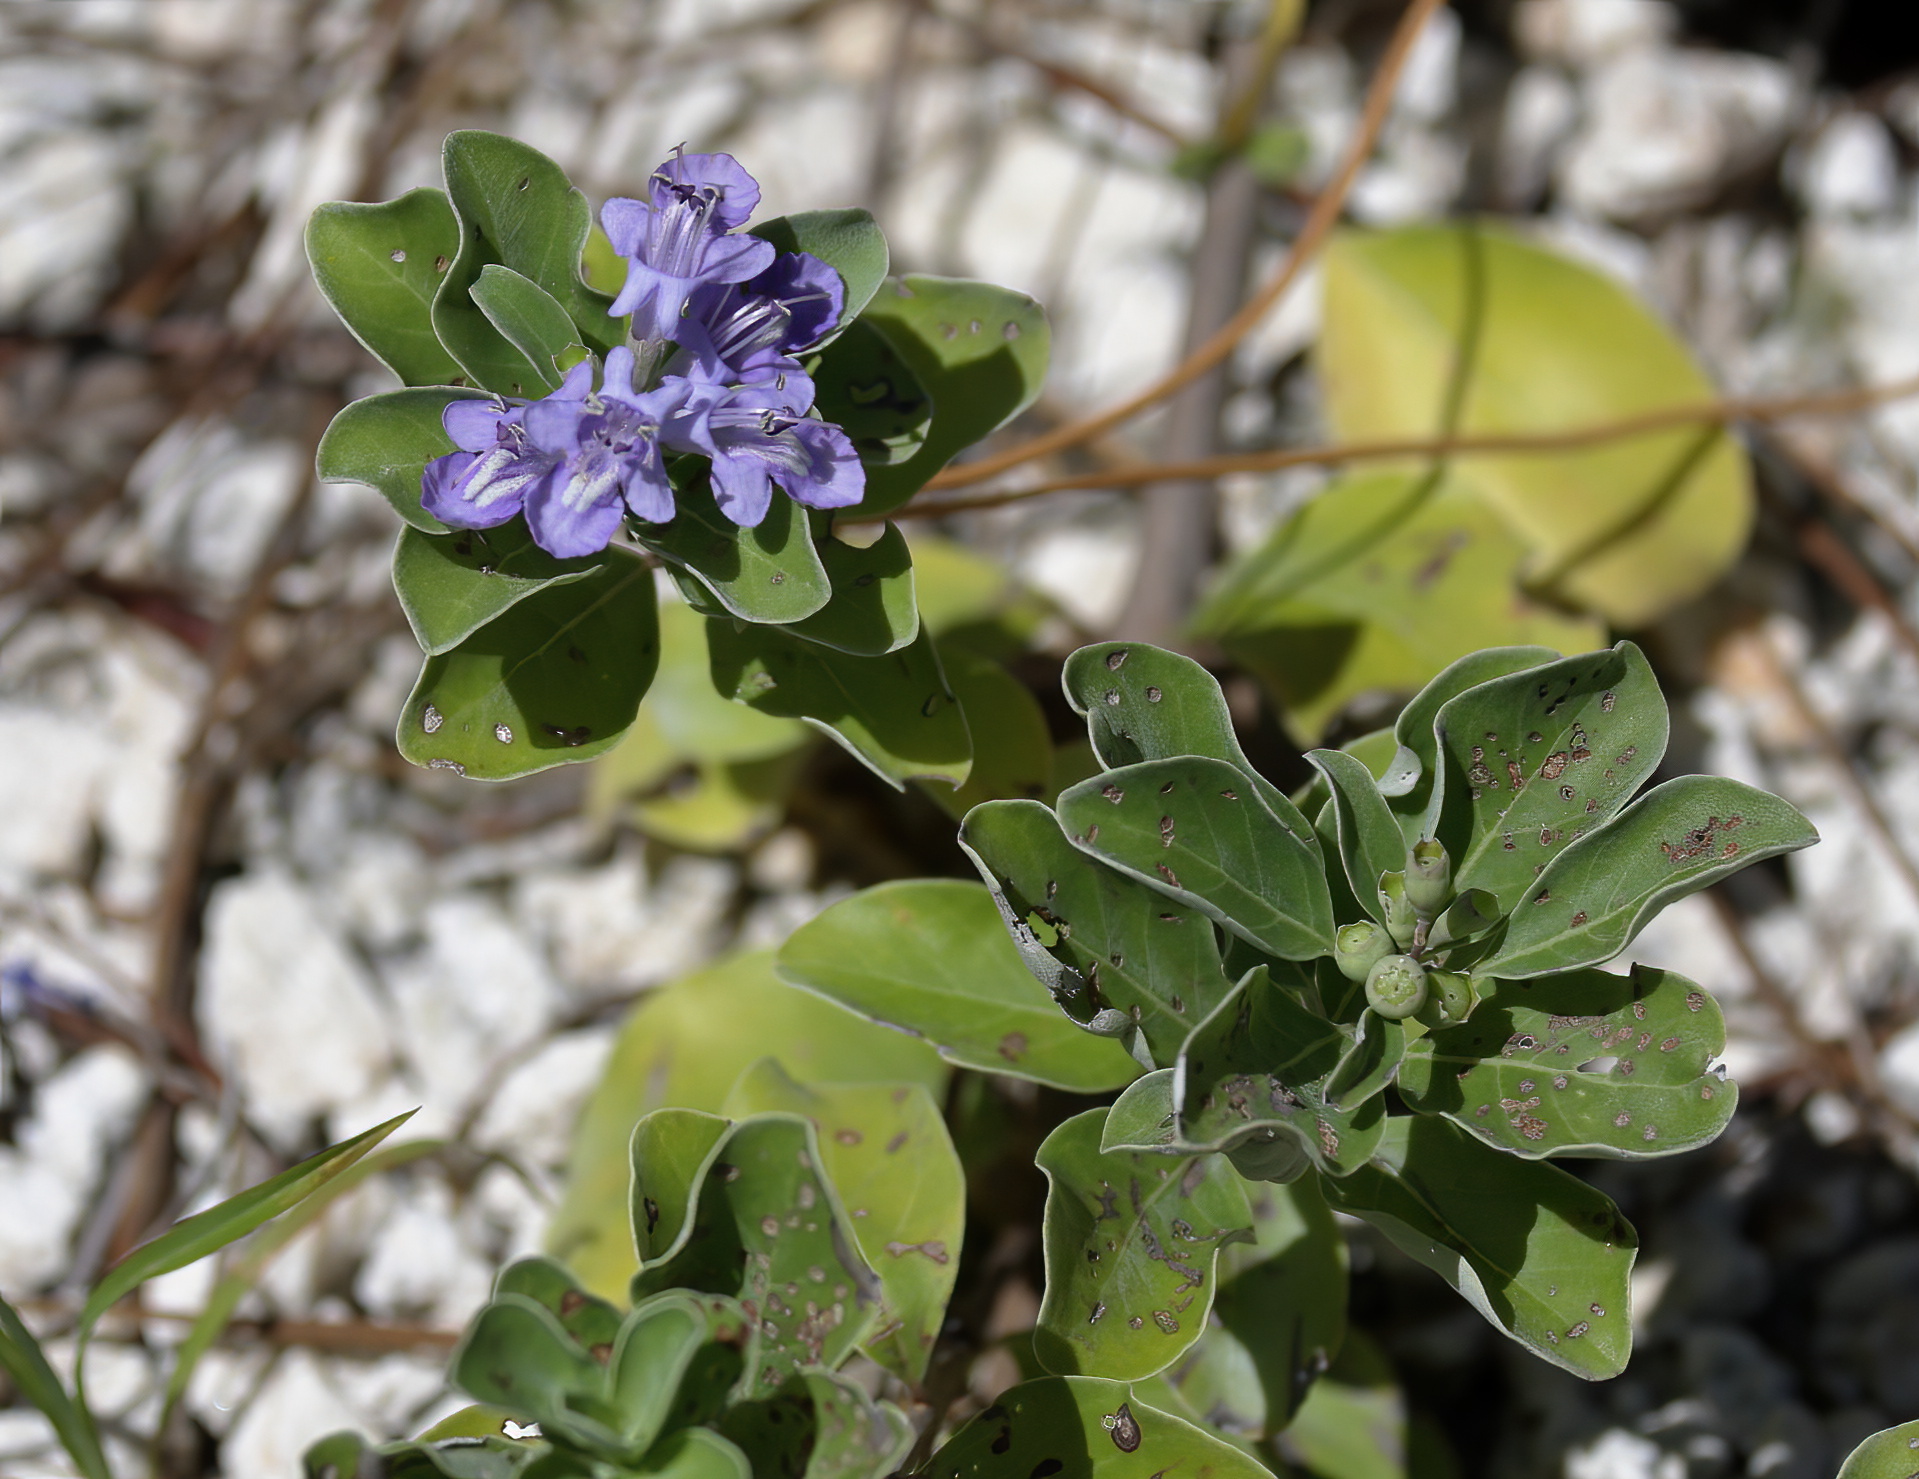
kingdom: Plantae
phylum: Tracheophyta
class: Magnoliopsida
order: Lamiales
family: Lamiaceae
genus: Vitex
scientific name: Vitex rotundifolia
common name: Beach vitex
